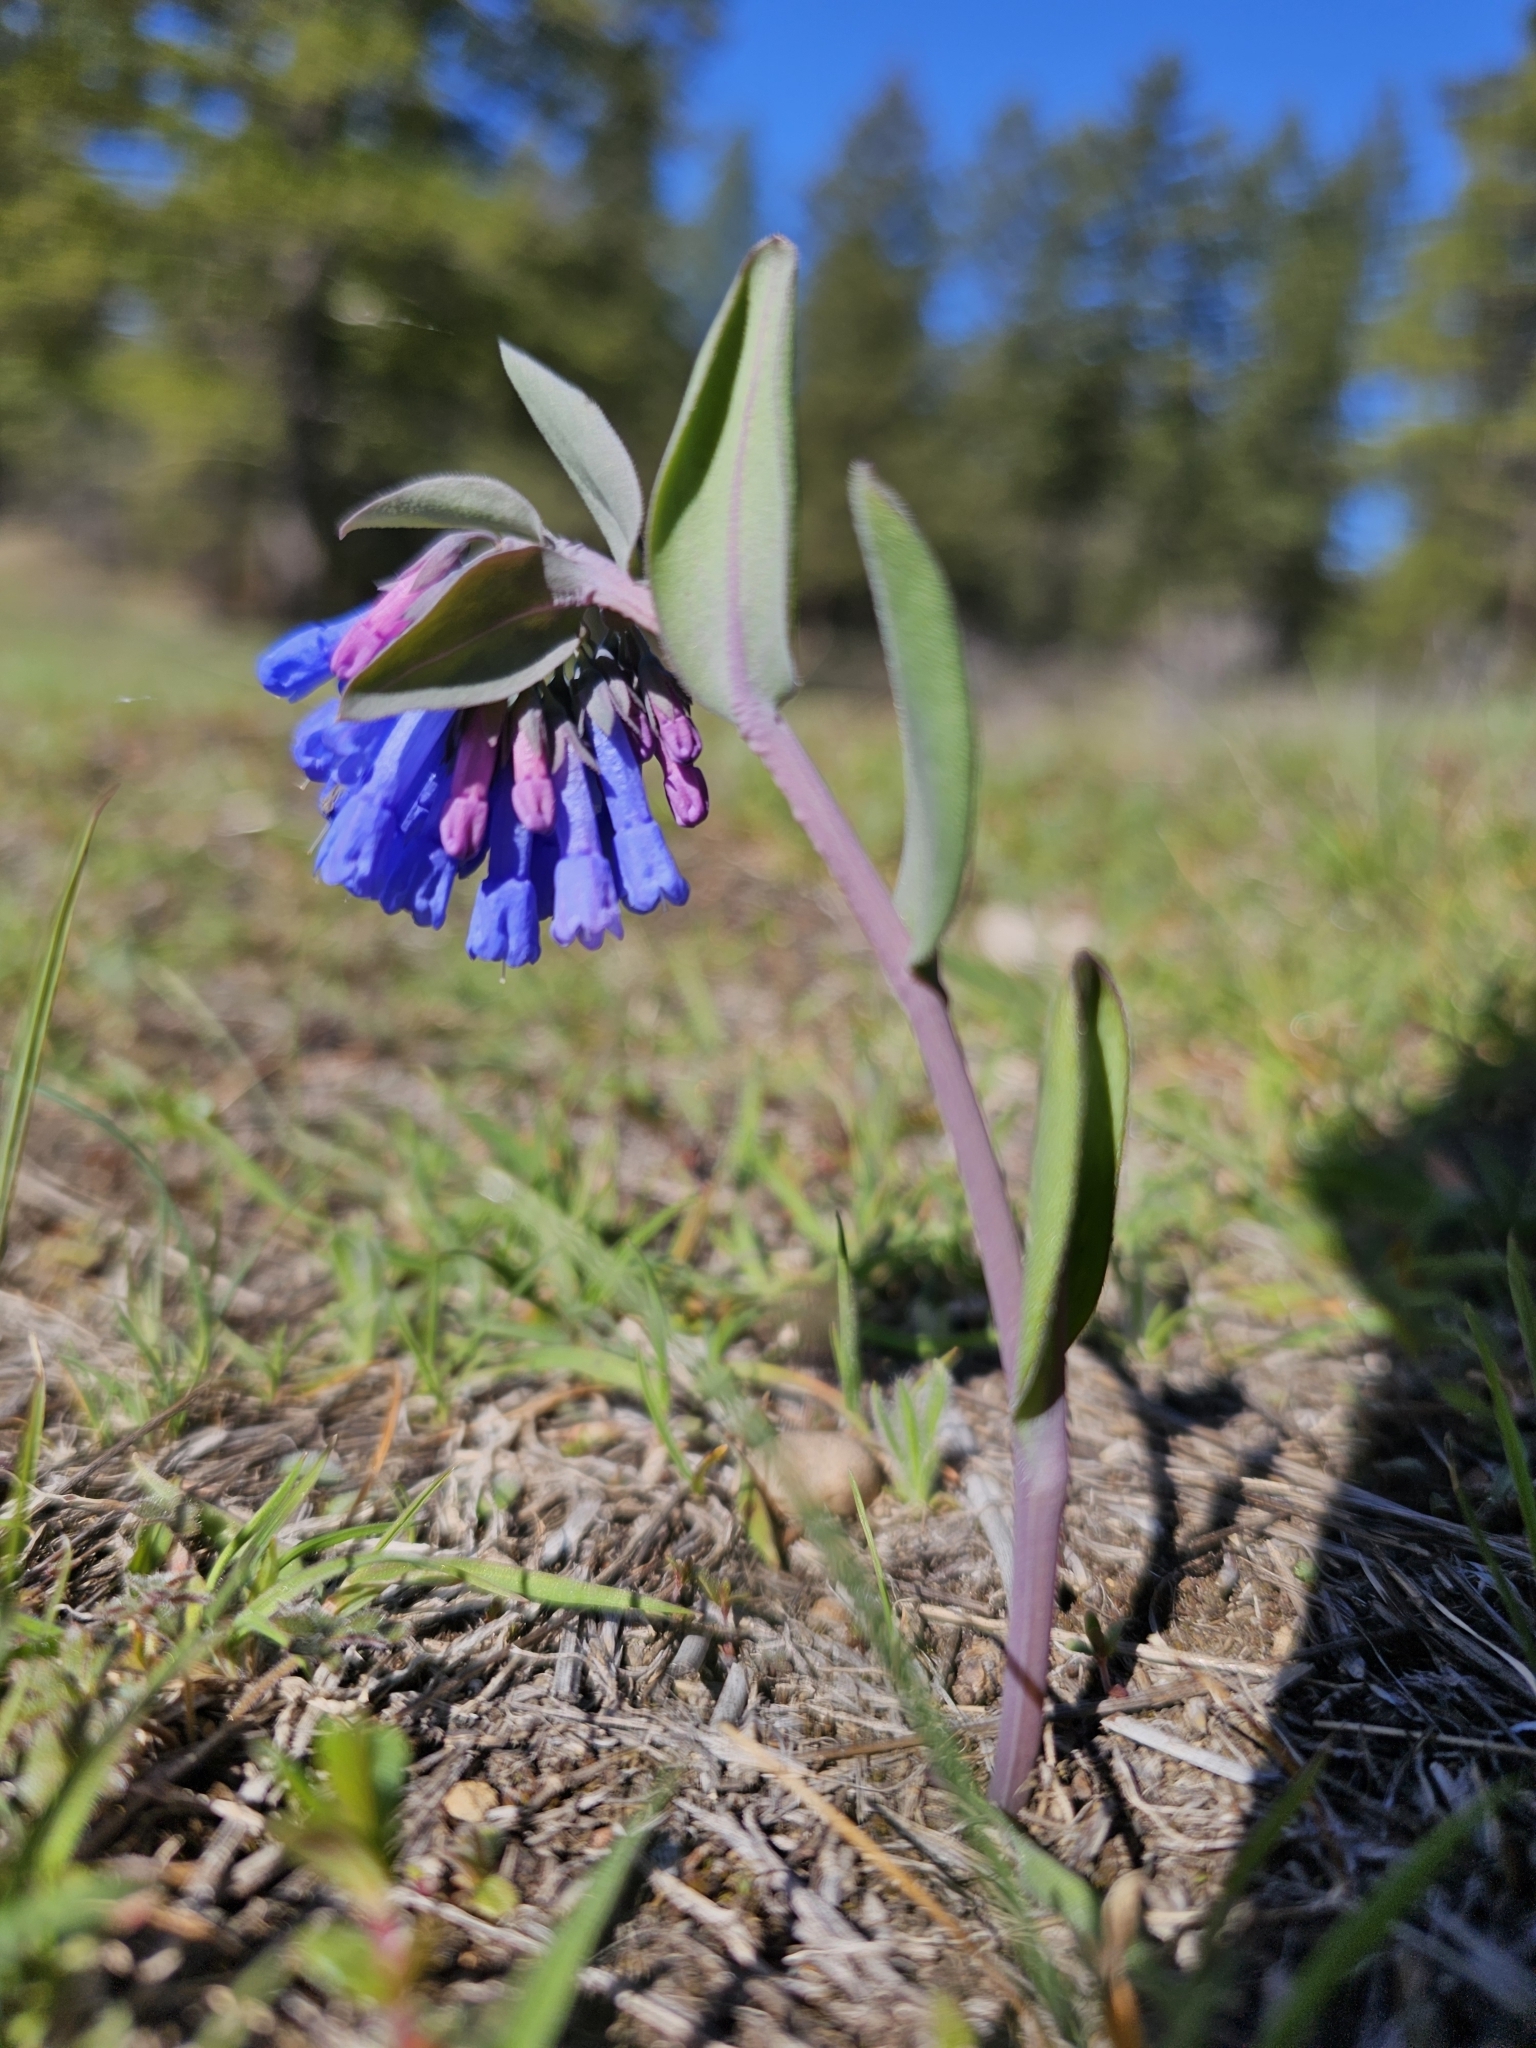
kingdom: Plantae
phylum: Tracheophyta
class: Magnoliopsida
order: Boraginales
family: Boraginaceae
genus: Mertensia
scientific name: Mertensia longiflora
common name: Large-flowered bluebells
